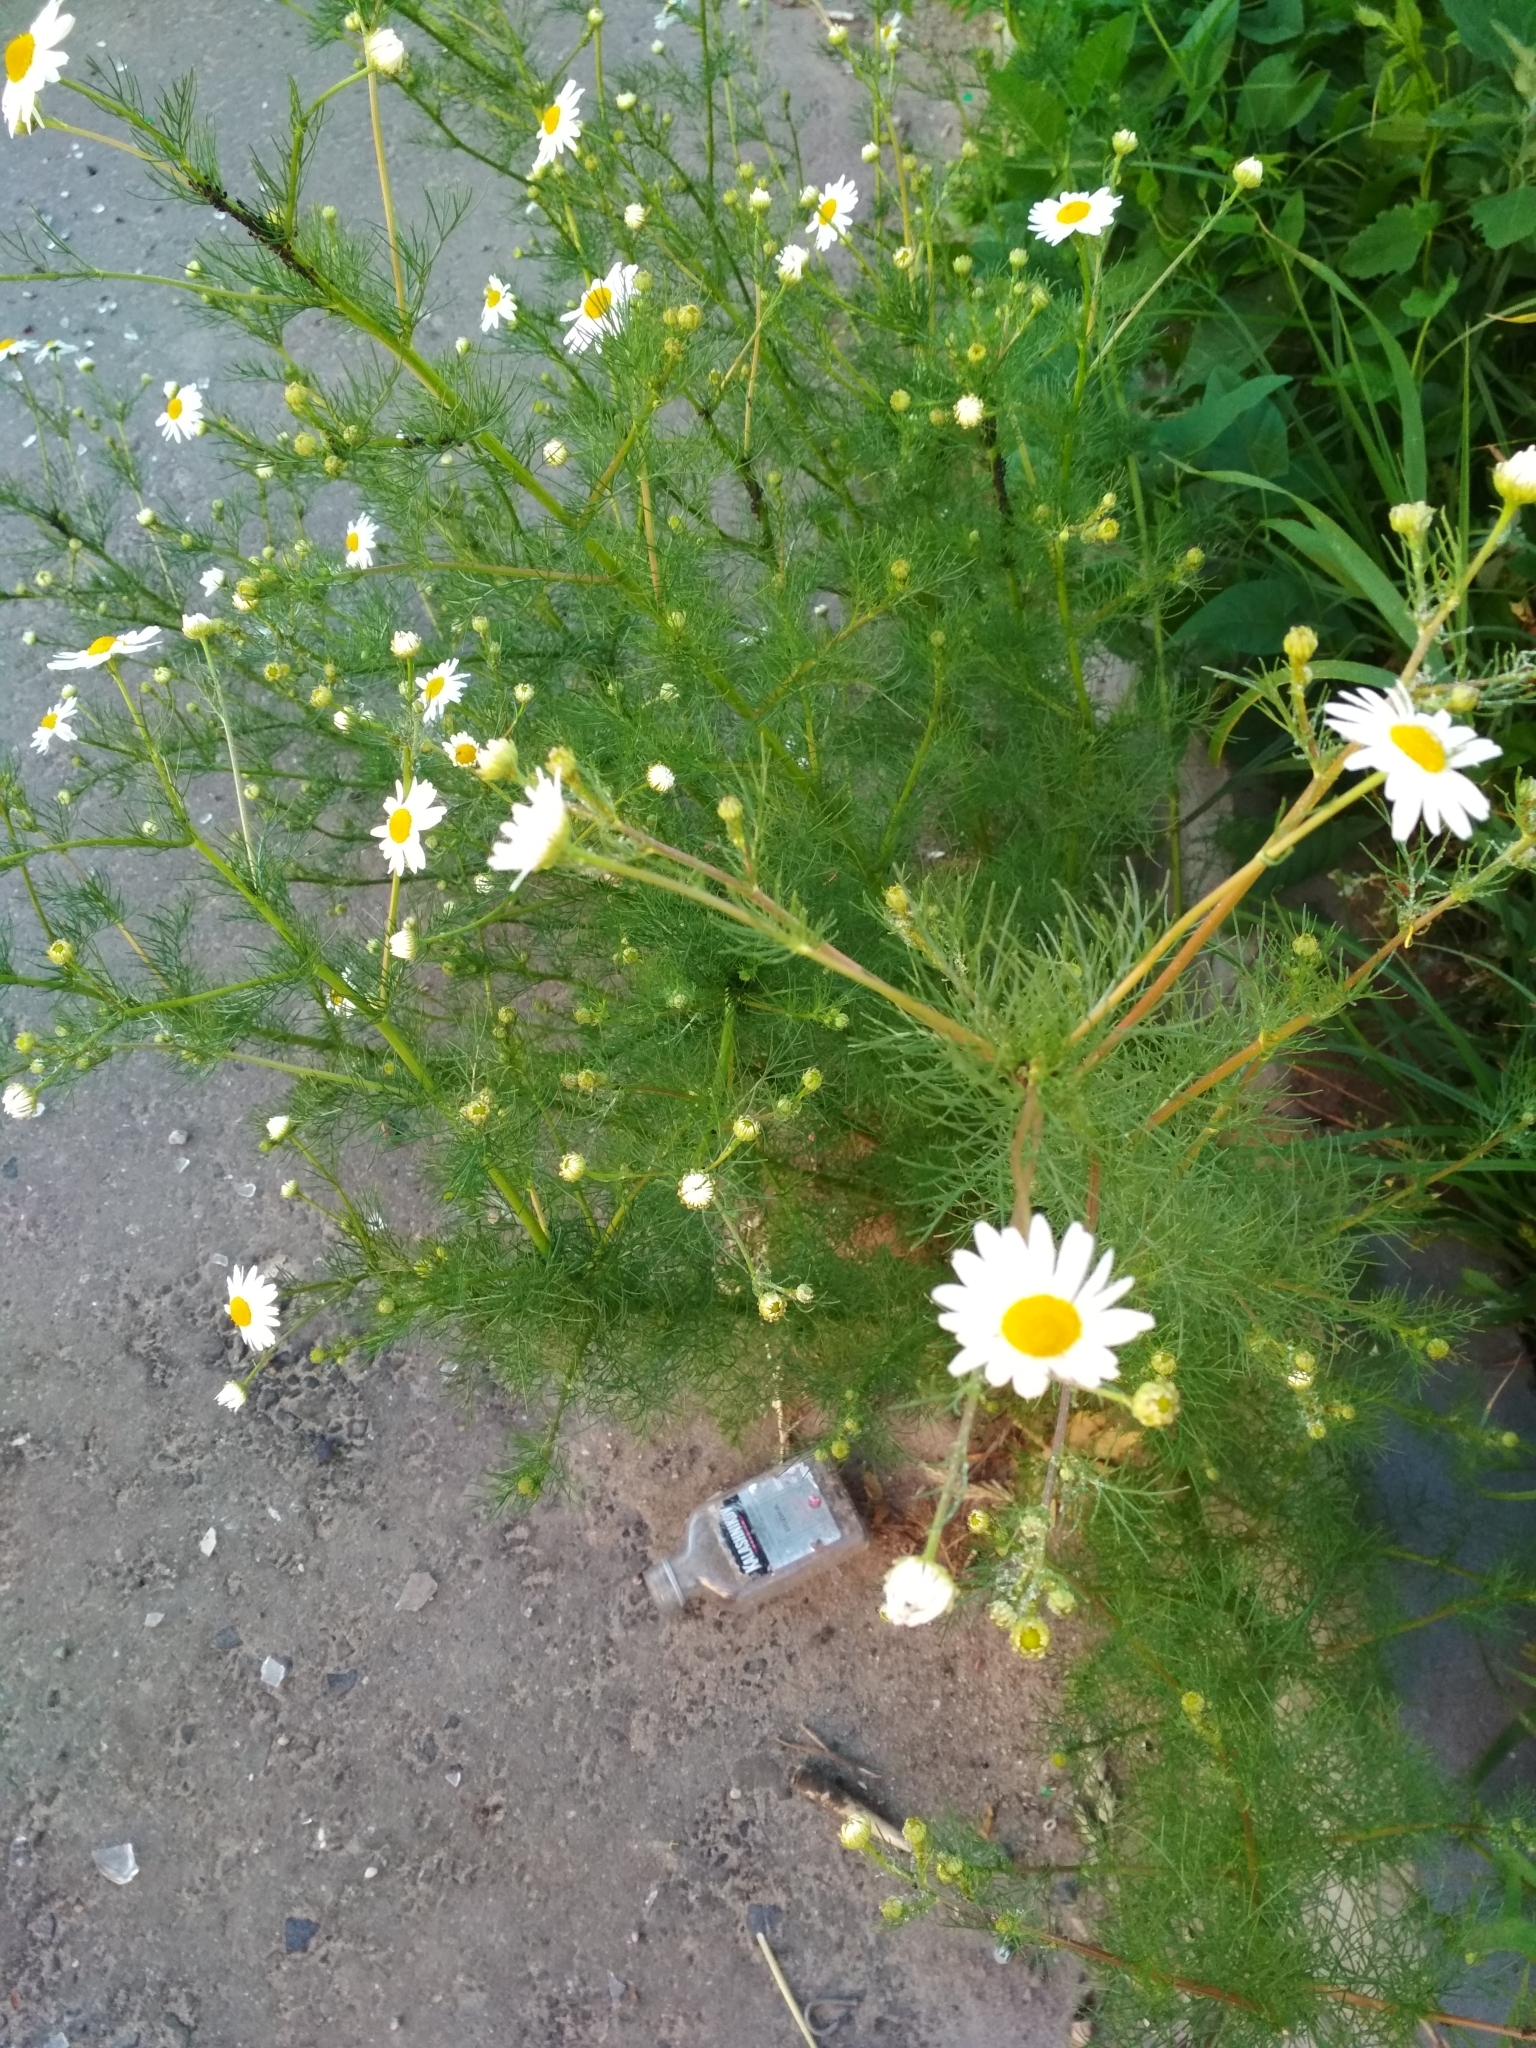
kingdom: Plantae
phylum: Tracheophyta
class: Magnoliopsida
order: Asterales
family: Asteraceae
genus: Tripleurospermum
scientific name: Tripleurospermum inodorum
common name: Scentless mayweed
